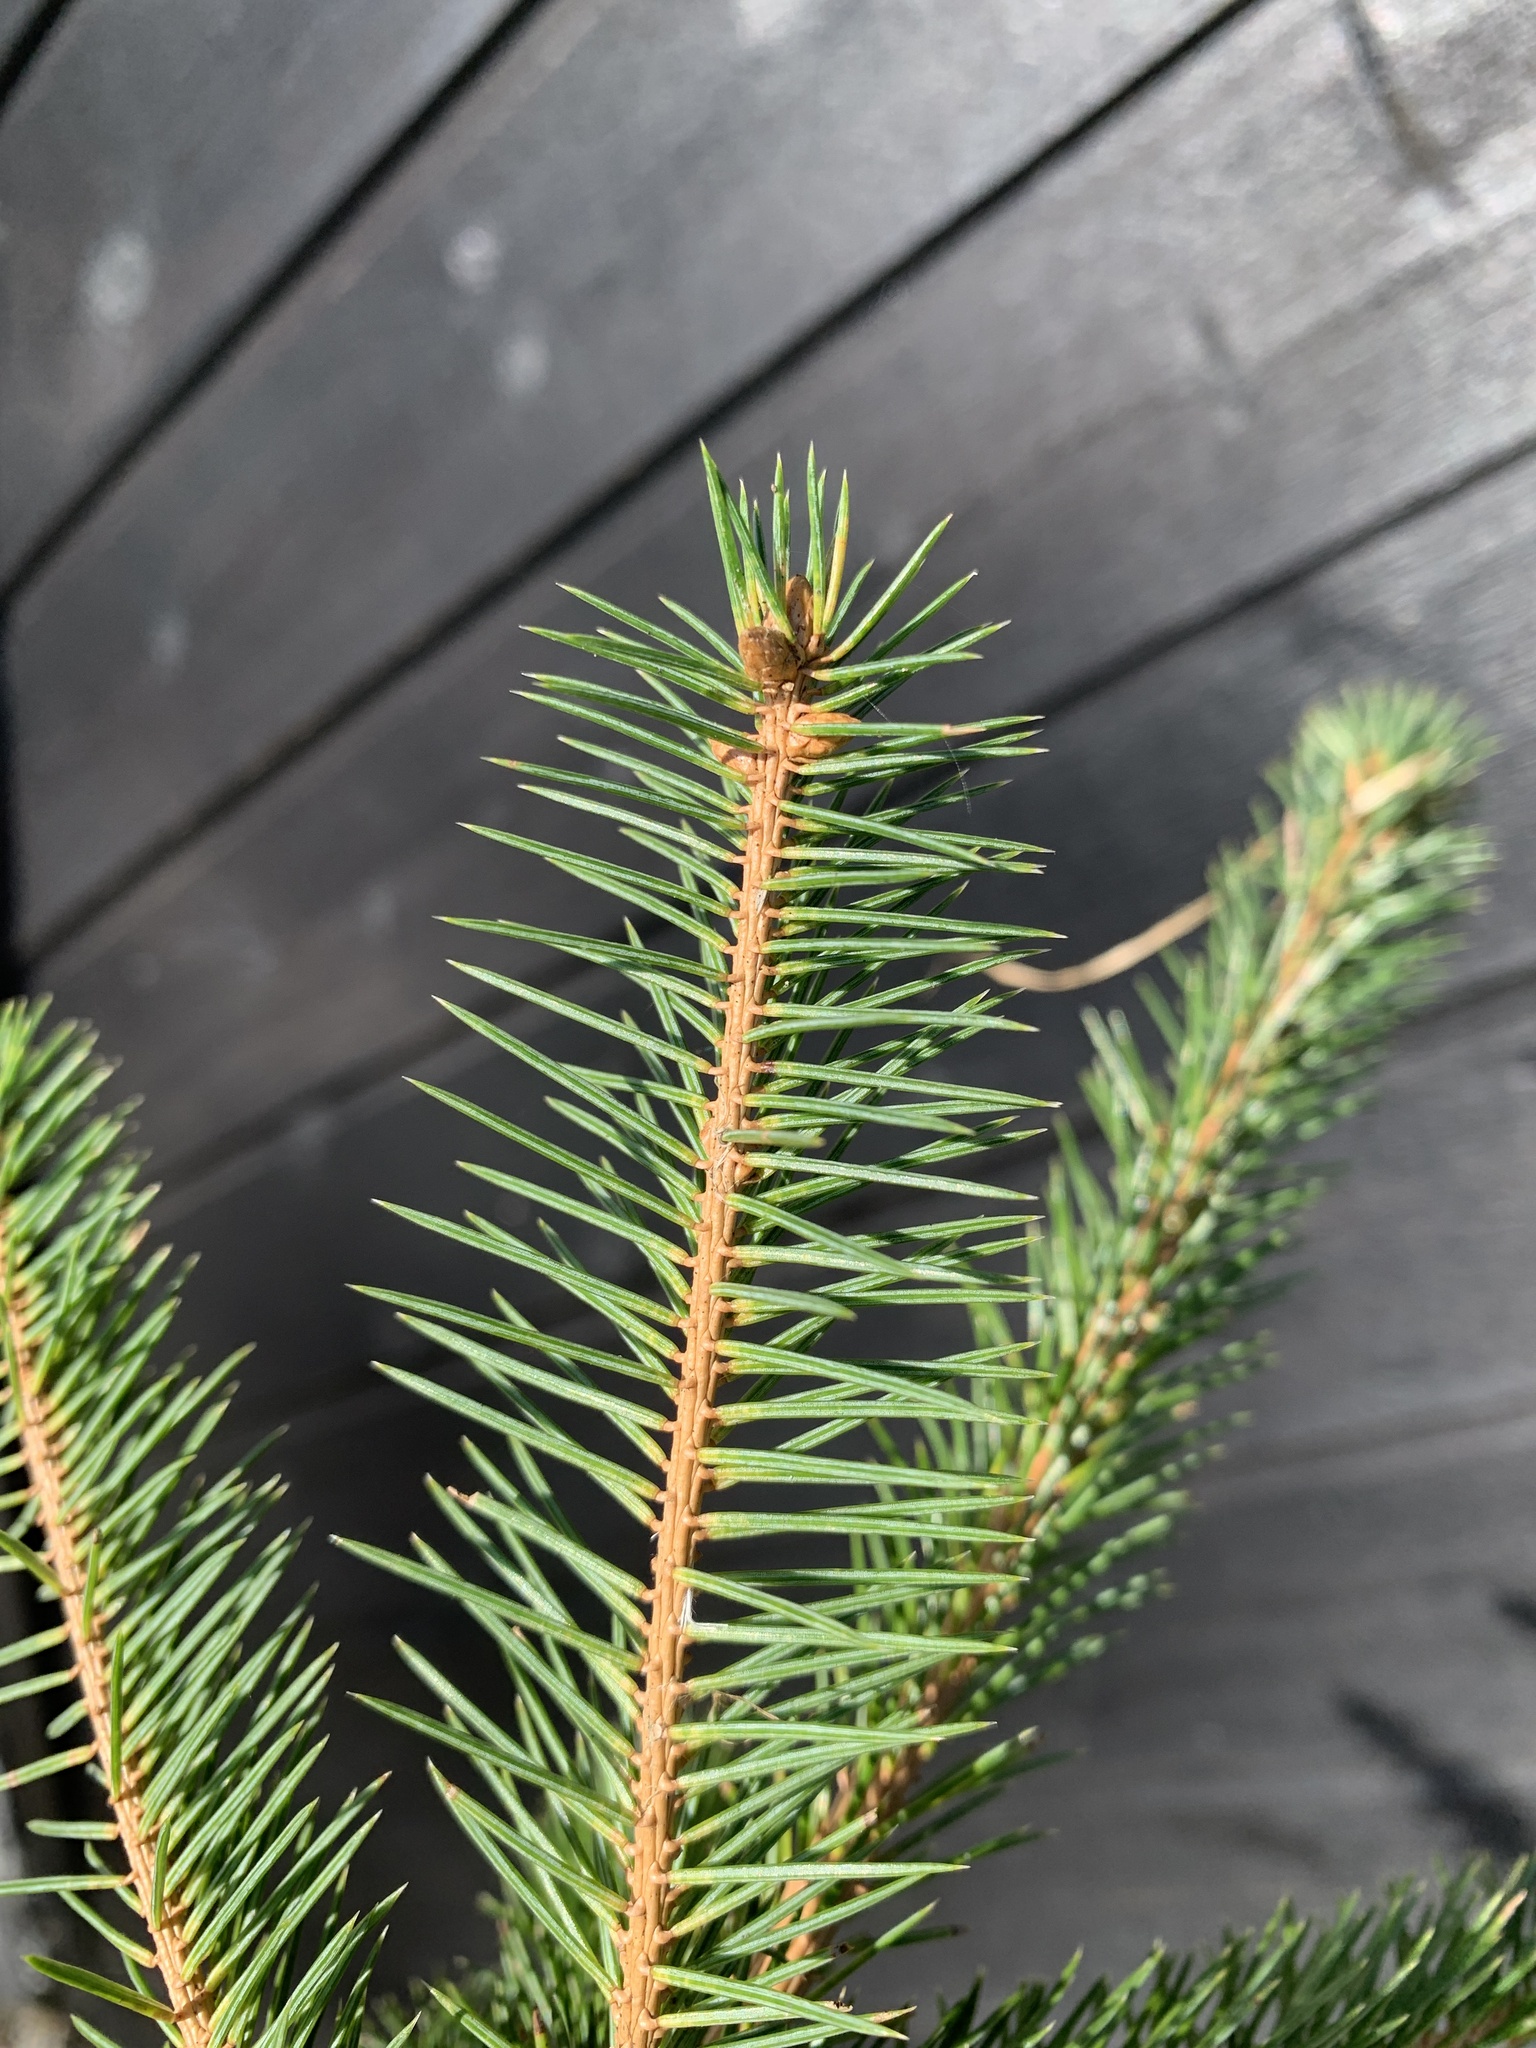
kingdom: Plantae
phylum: Tracheophyta
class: Pinopsida
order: Pinales
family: Pinaceae
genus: Picea
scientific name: Picea abies
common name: Norway spruce
